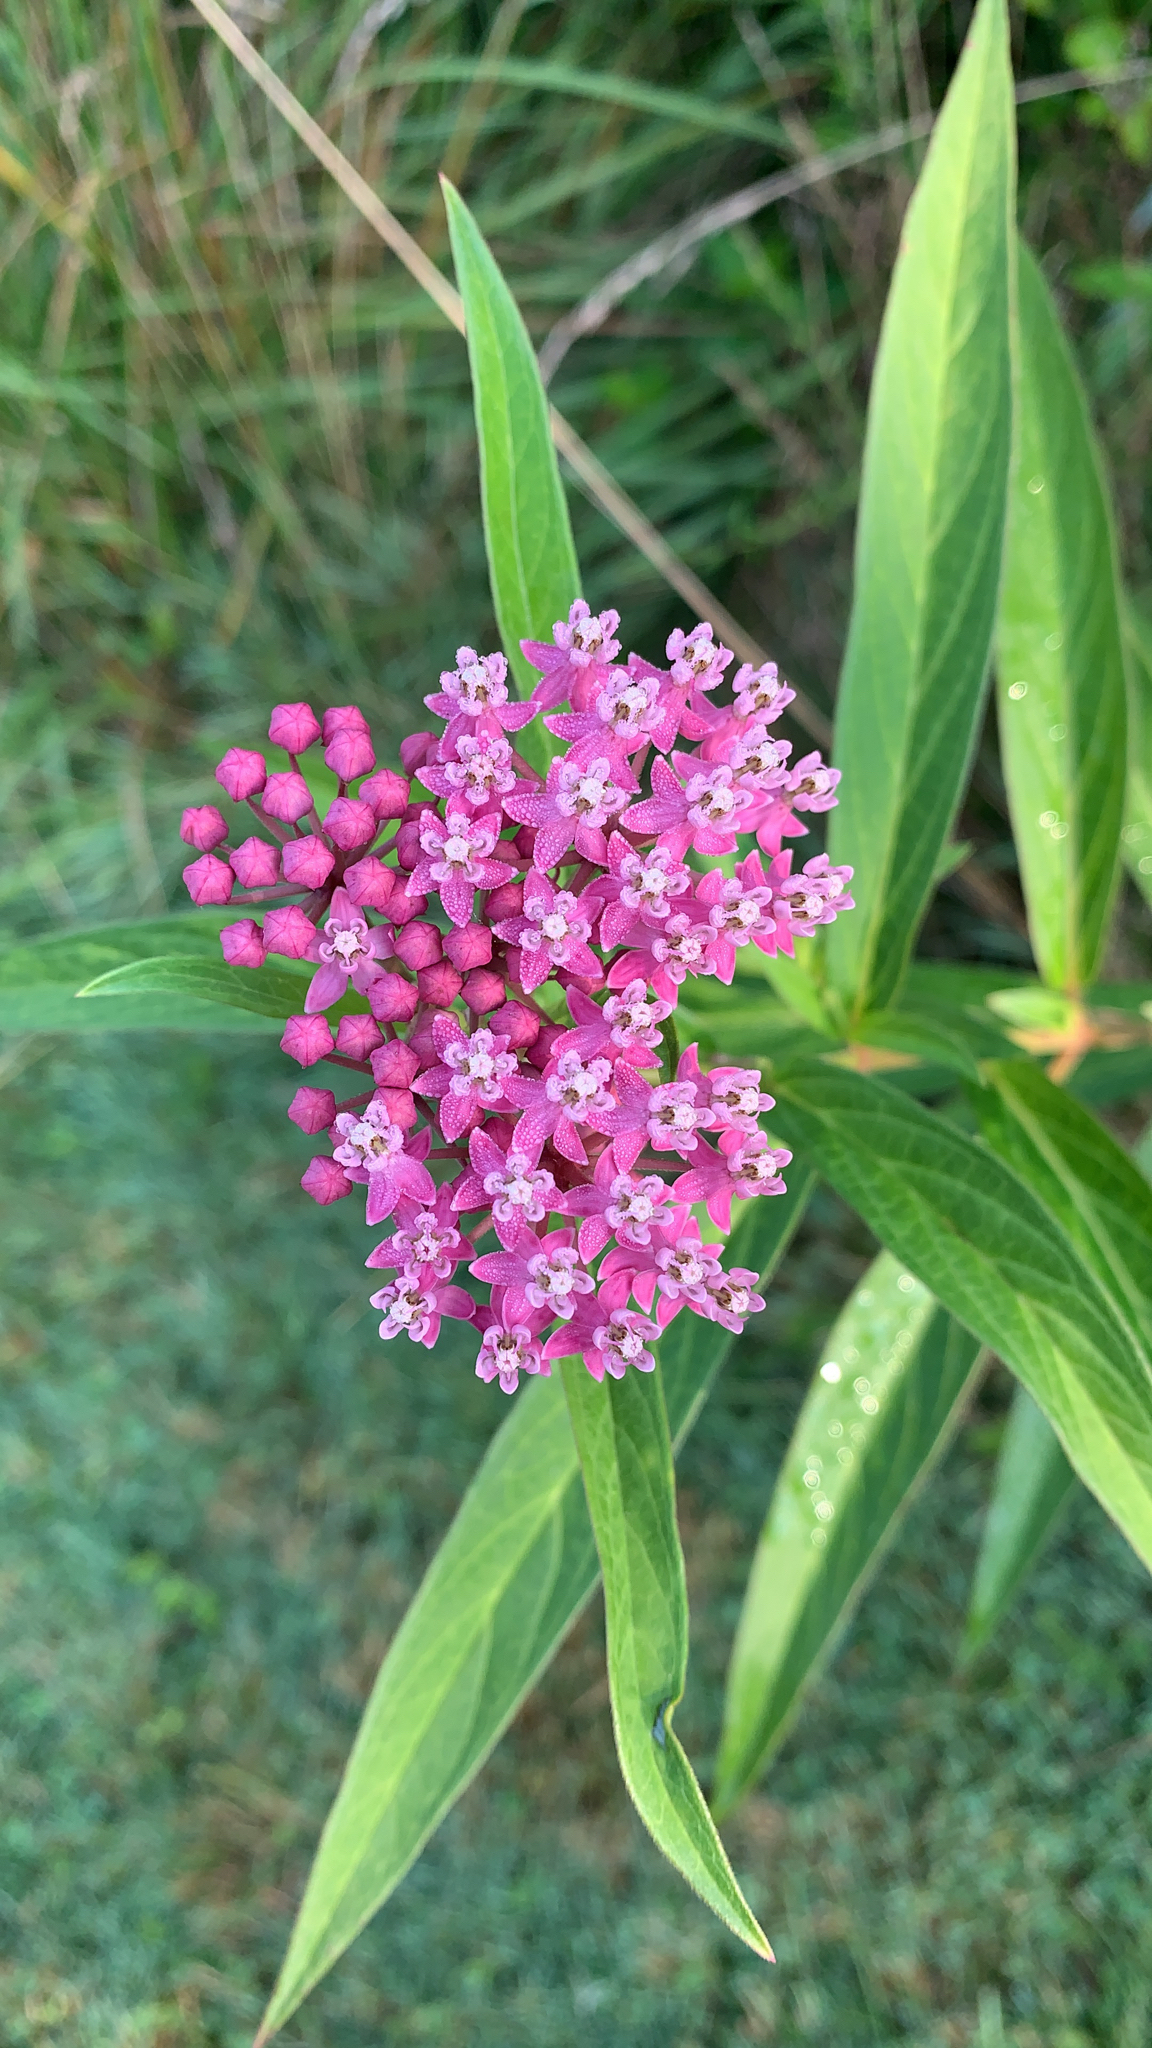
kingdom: Plantae
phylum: Tracheophyta
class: Magnoliopsida
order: Gentianales
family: Apocynaceae
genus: Asclepias
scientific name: Asclepias incarnata
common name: Swamp milkweed
